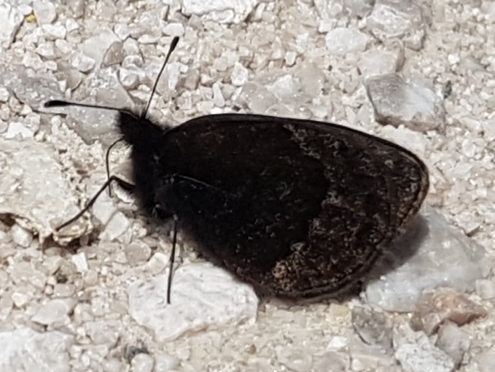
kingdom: Animalia
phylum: Arthropoda
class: Insecta
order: Lepidoptera
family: Nymphalidae
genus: Erebia
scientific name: Erebia gorge
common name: Silky ringlet
